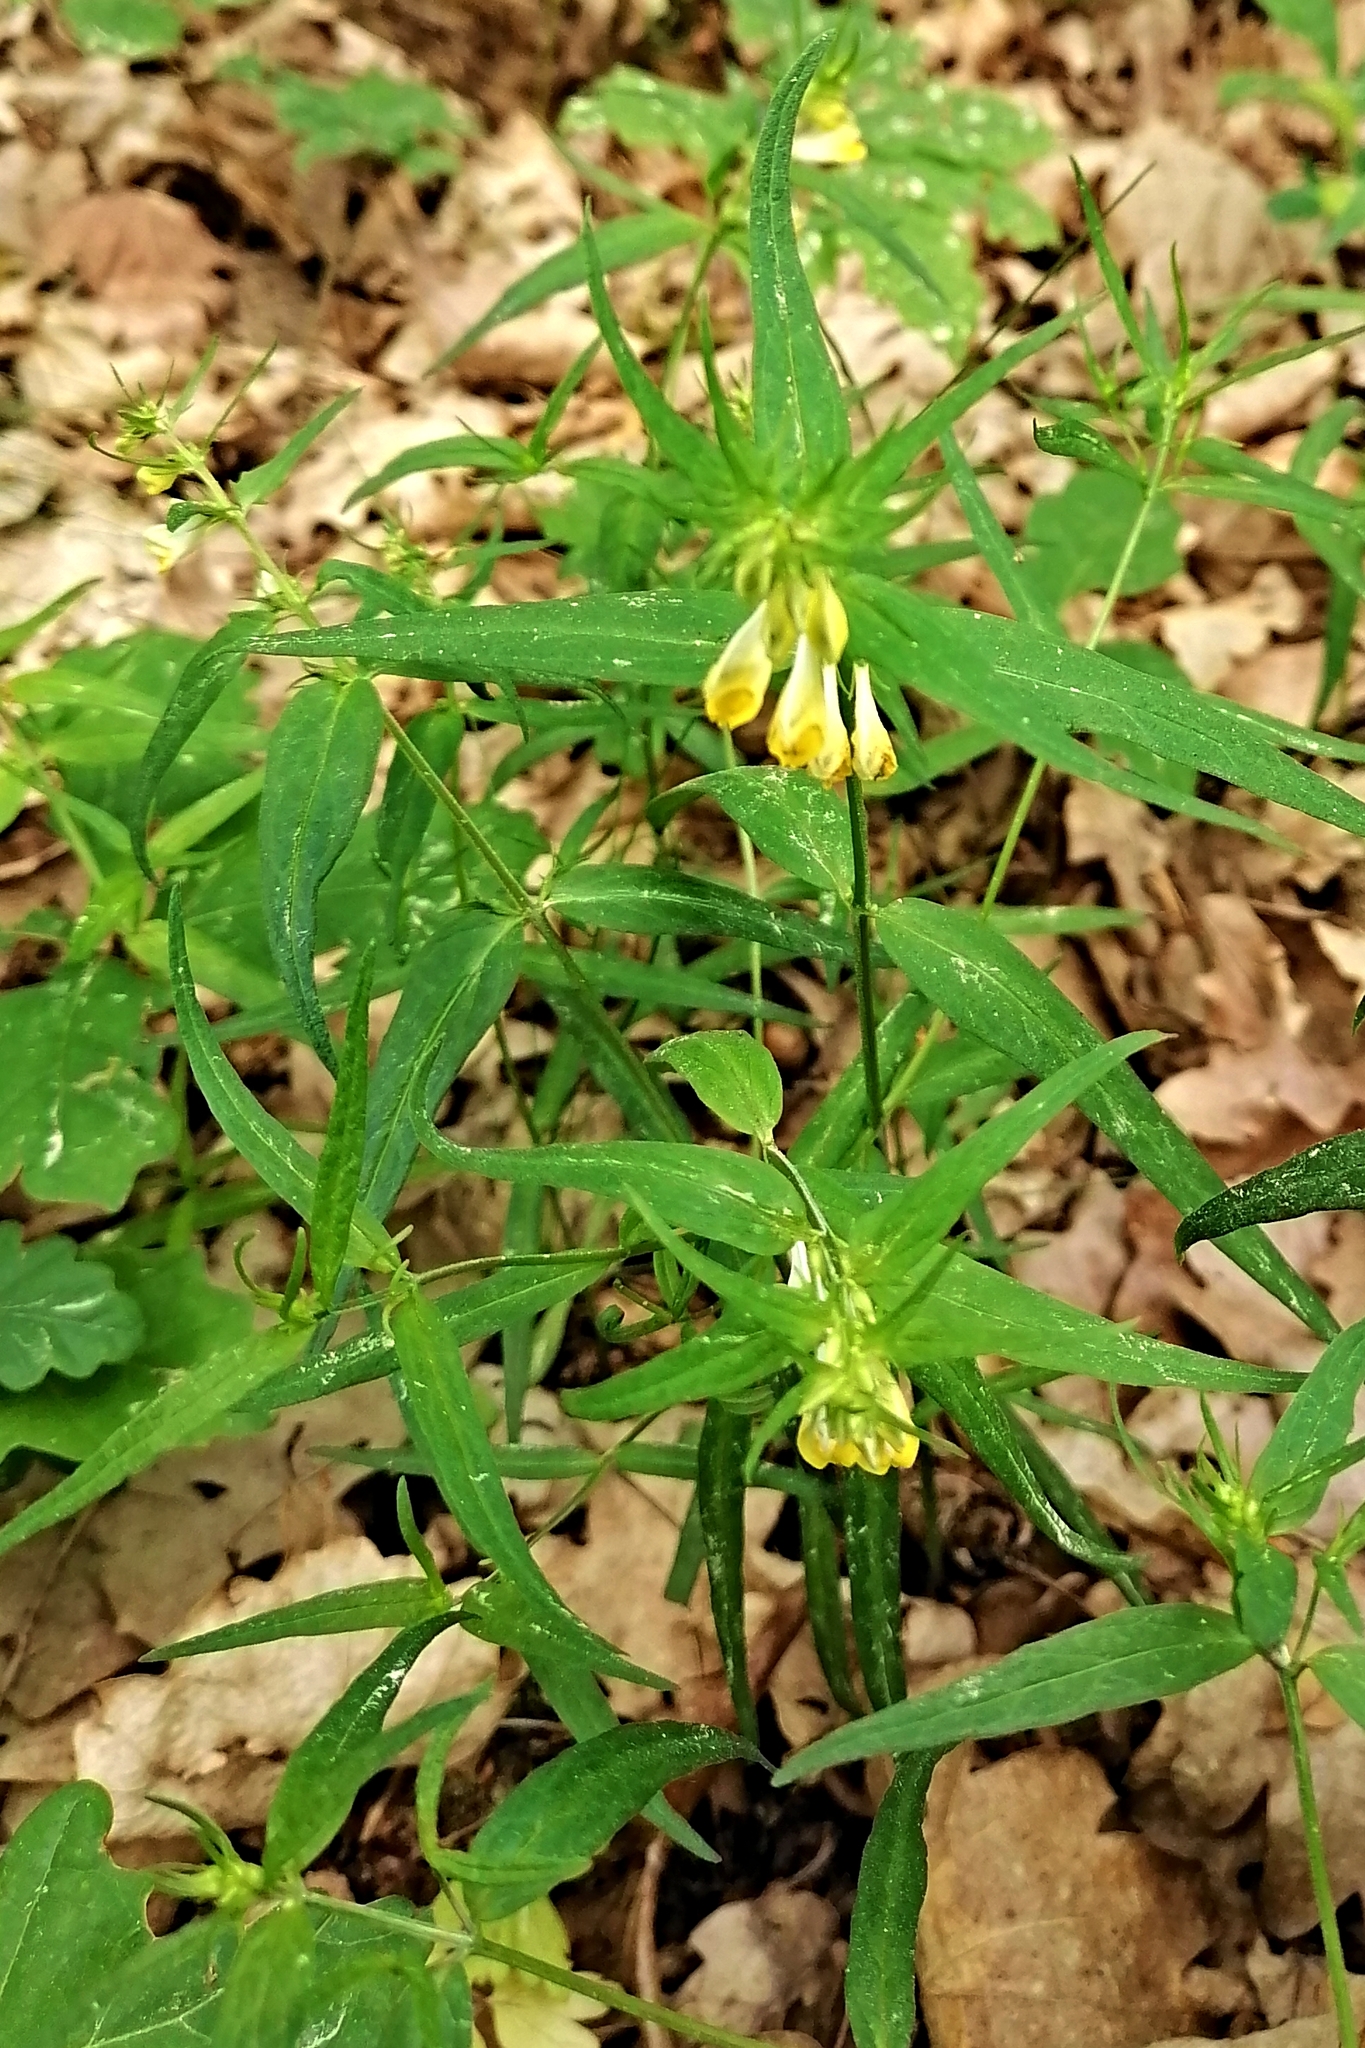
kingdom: Plantae
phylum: Tracheophyta
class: Magnoliopsida
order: Lamiales
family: Orobanchaceae
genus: Melampyrum
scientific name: Melampyrum pratense
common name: Common cow-wheat
